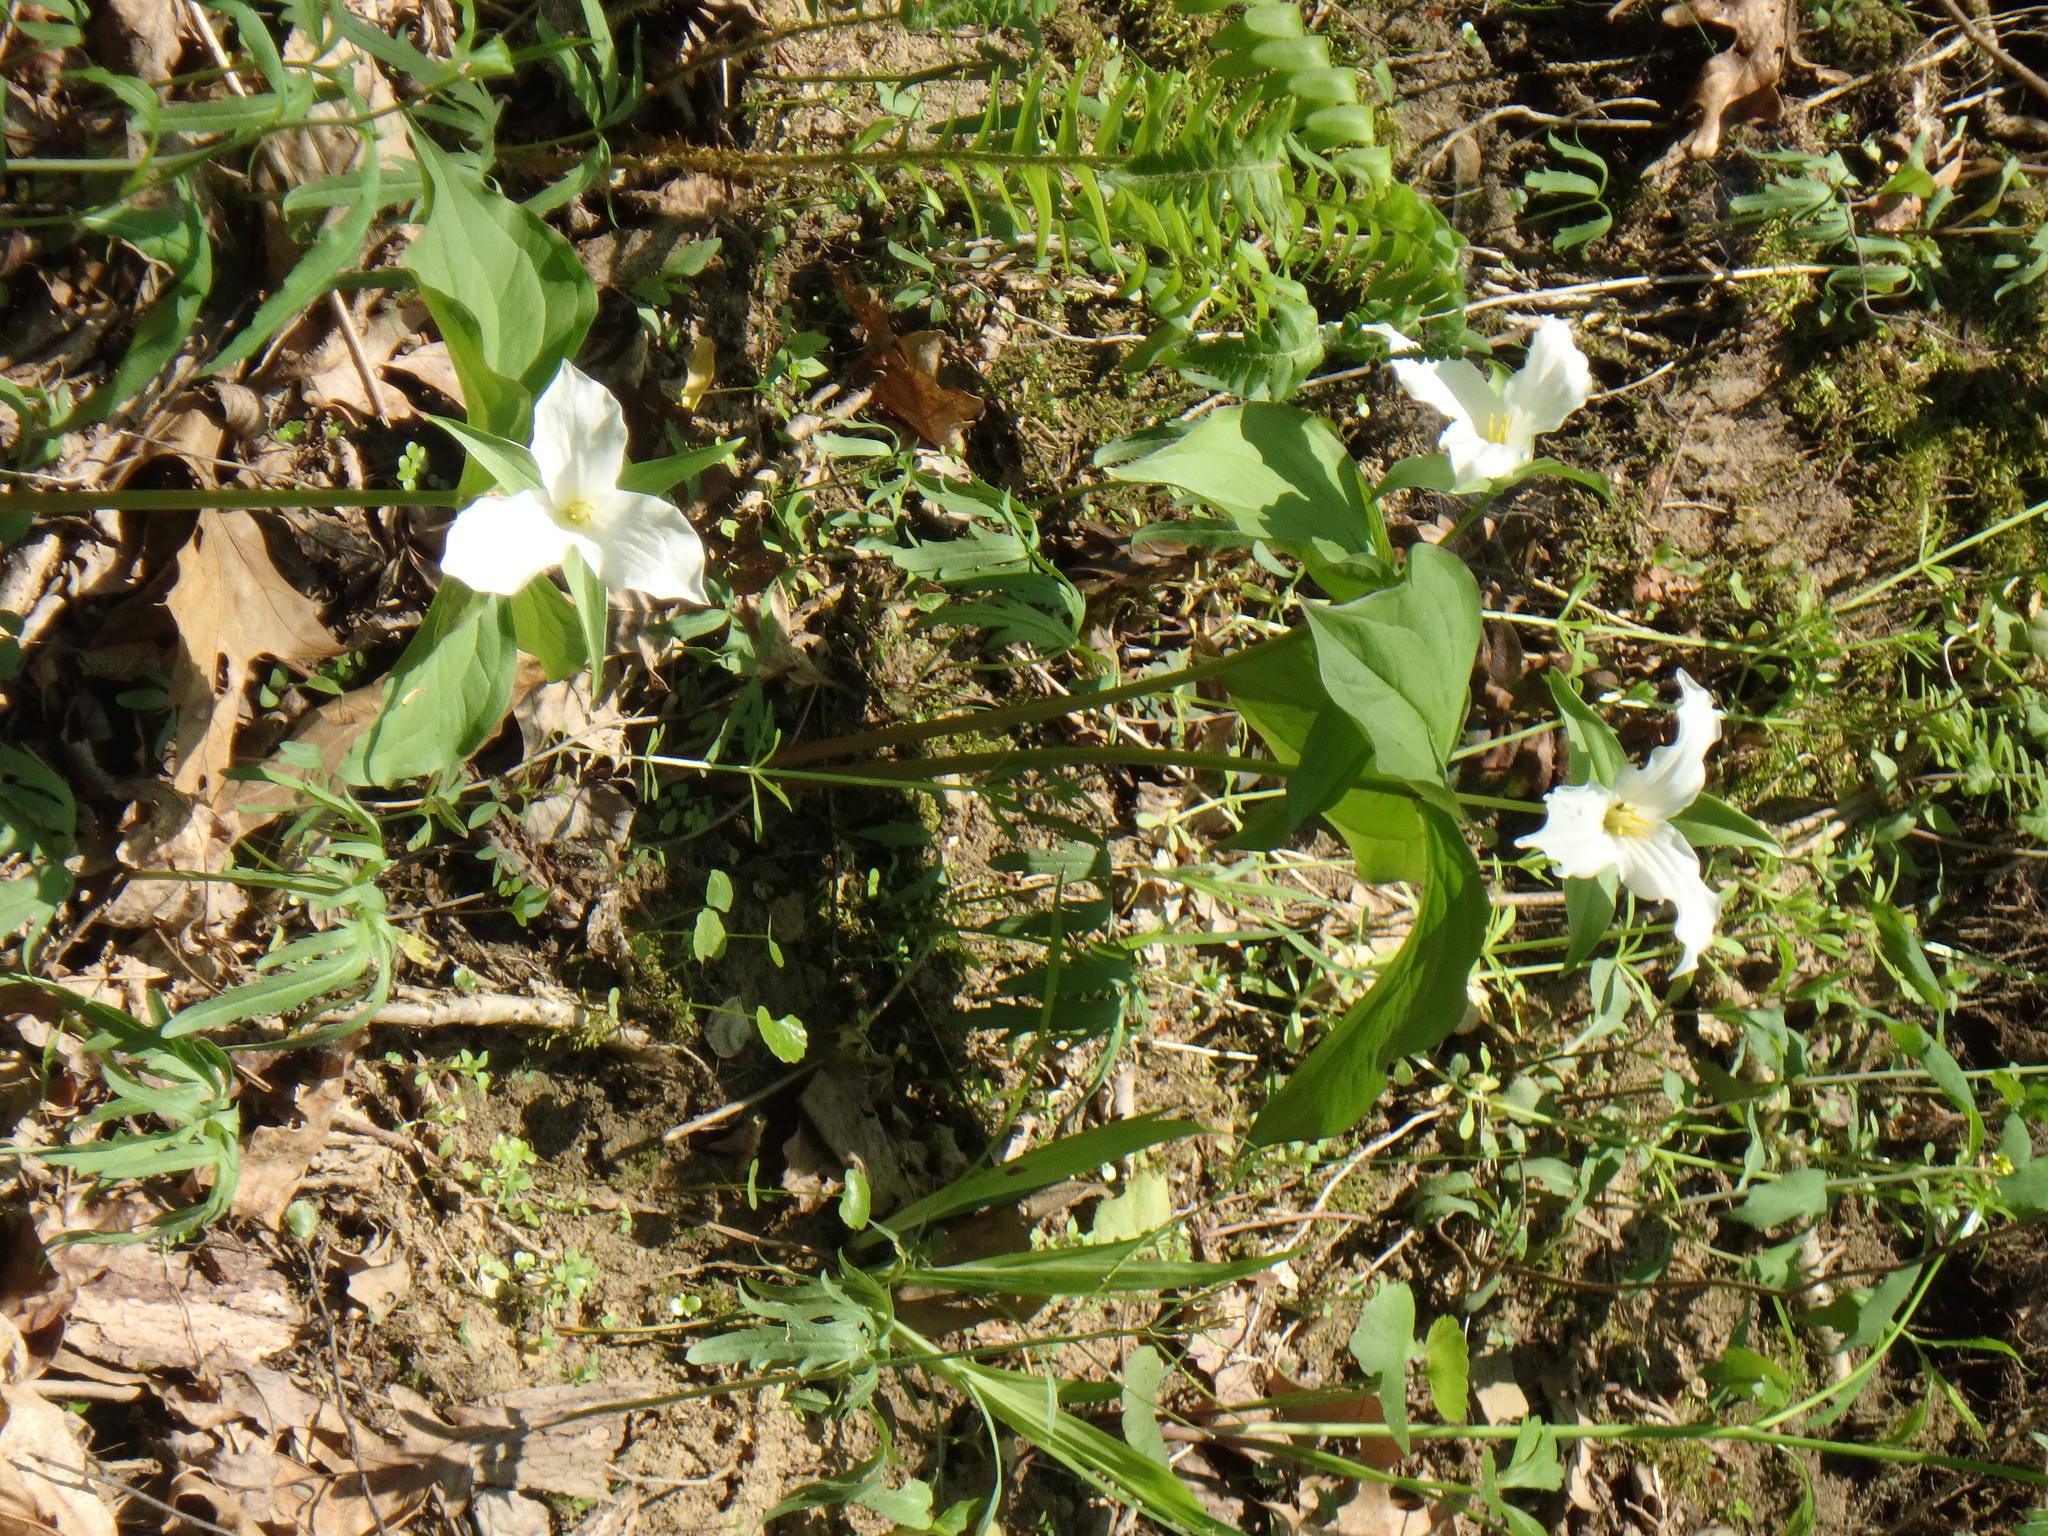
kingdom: Plantae
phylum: Tracheophyta
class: Liliopsida
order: Liliales
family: Melanthiaceae
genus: Trillium
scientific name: Trillium grandiflorum
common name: Great white trillium
